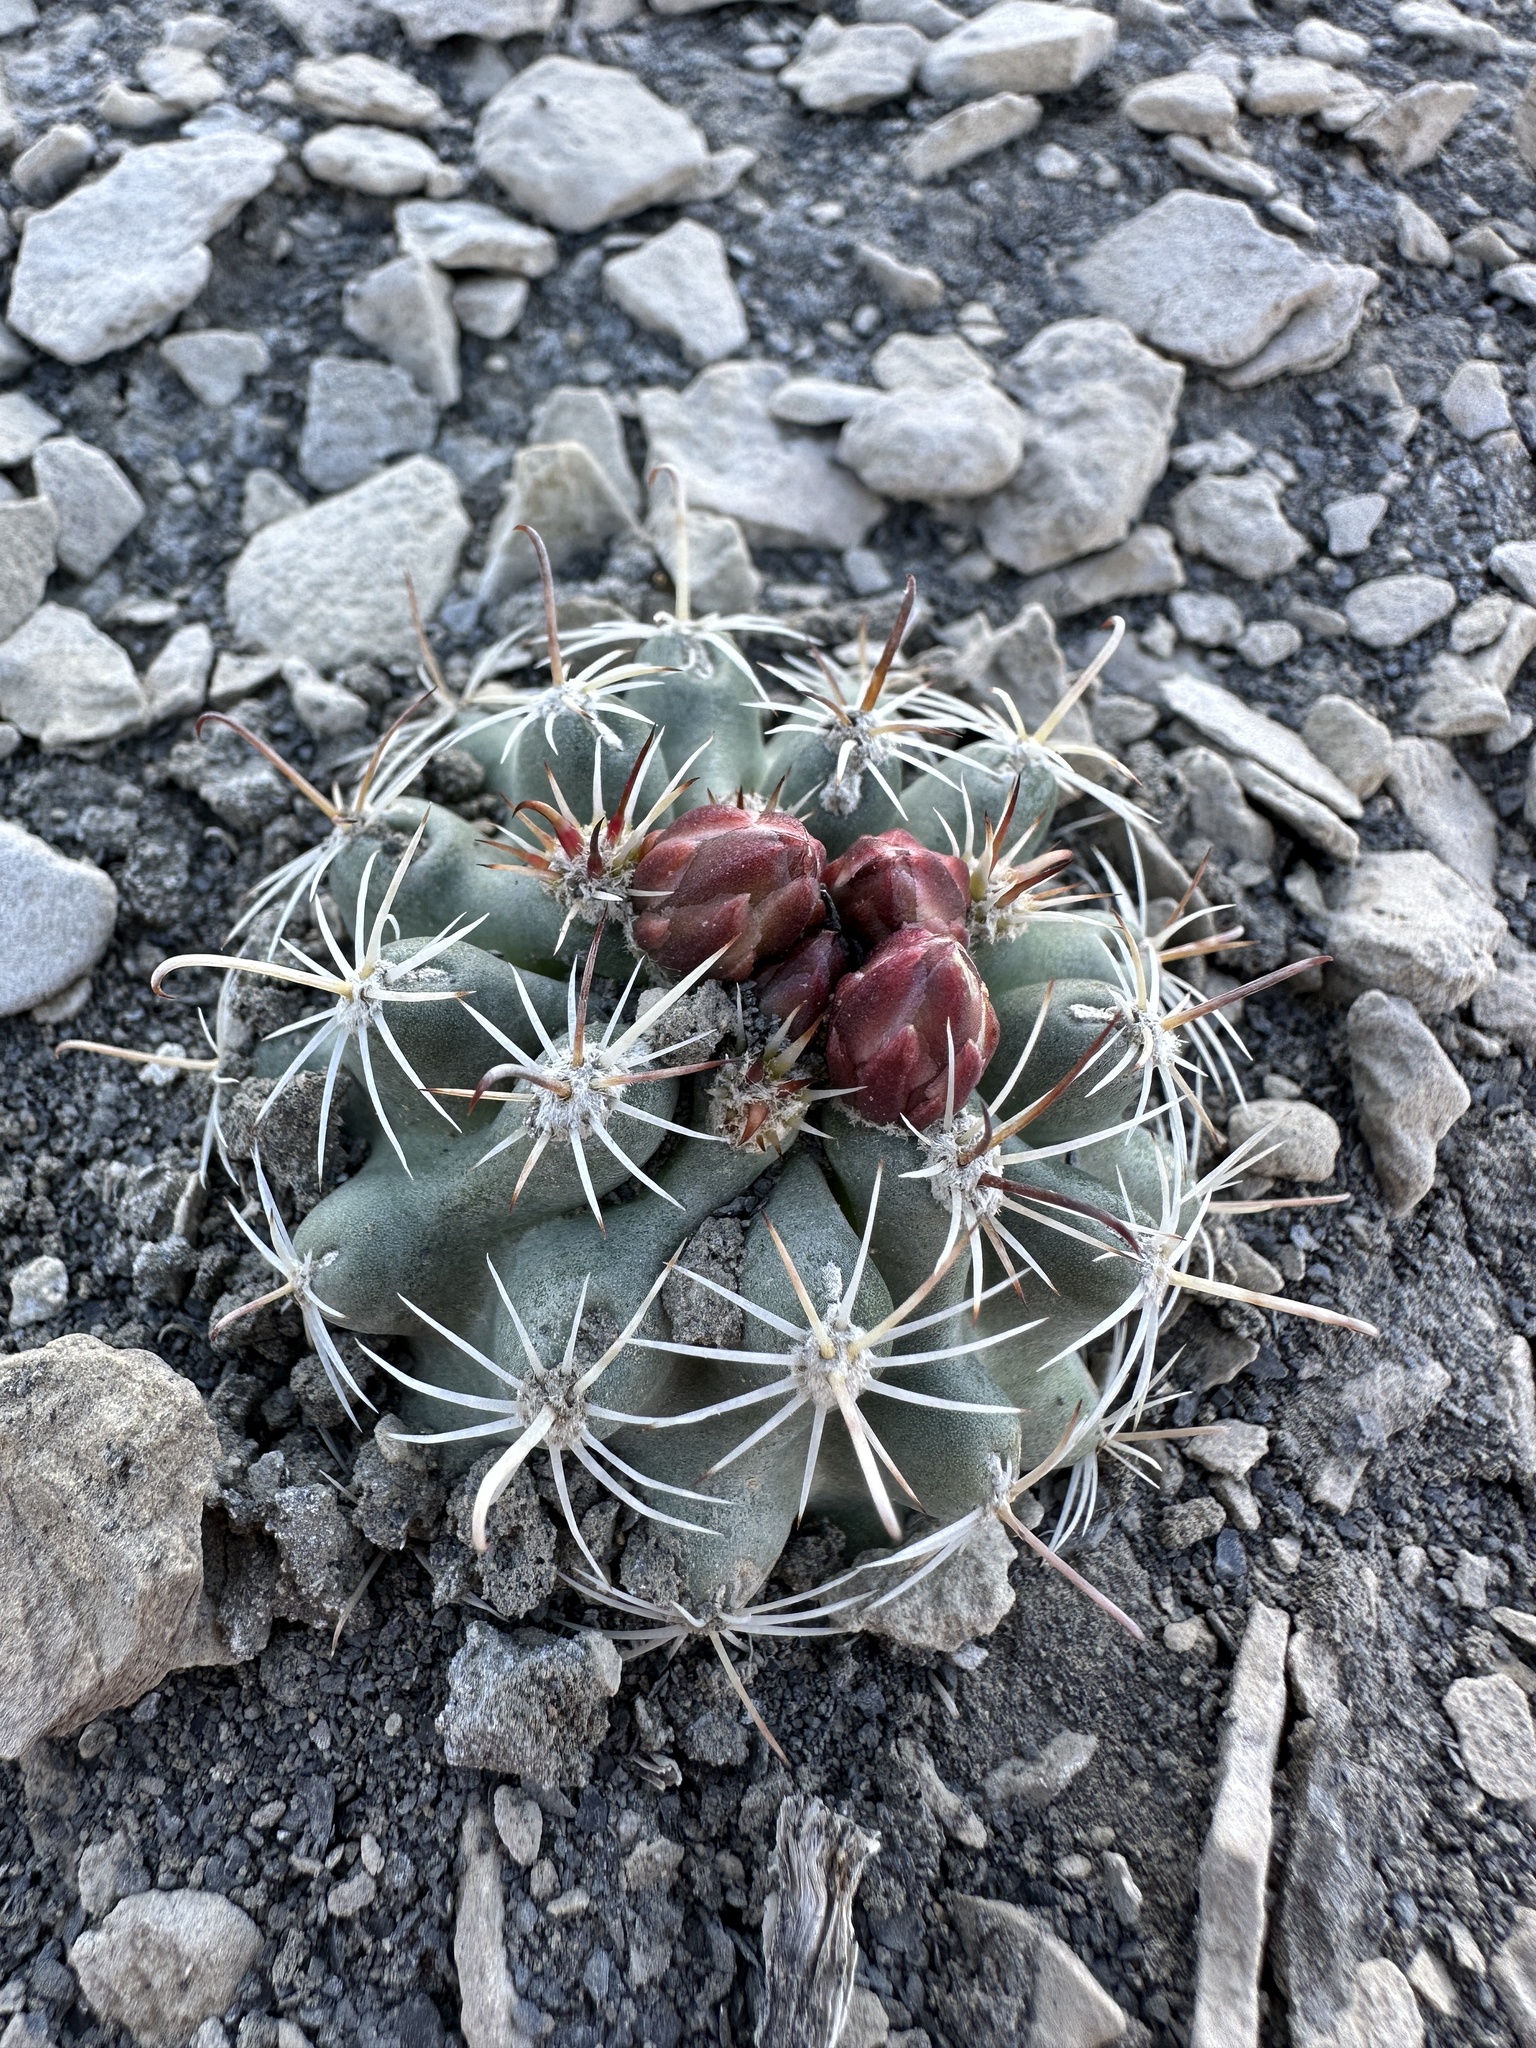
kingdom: Plantae
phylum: Tracheophyta
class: Magnoliopsida
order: Caryophyllales
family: Cactaceae
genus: Sclerocactus
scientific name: Sclerocactus wrightiae
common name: Wrights fishhook cactus
